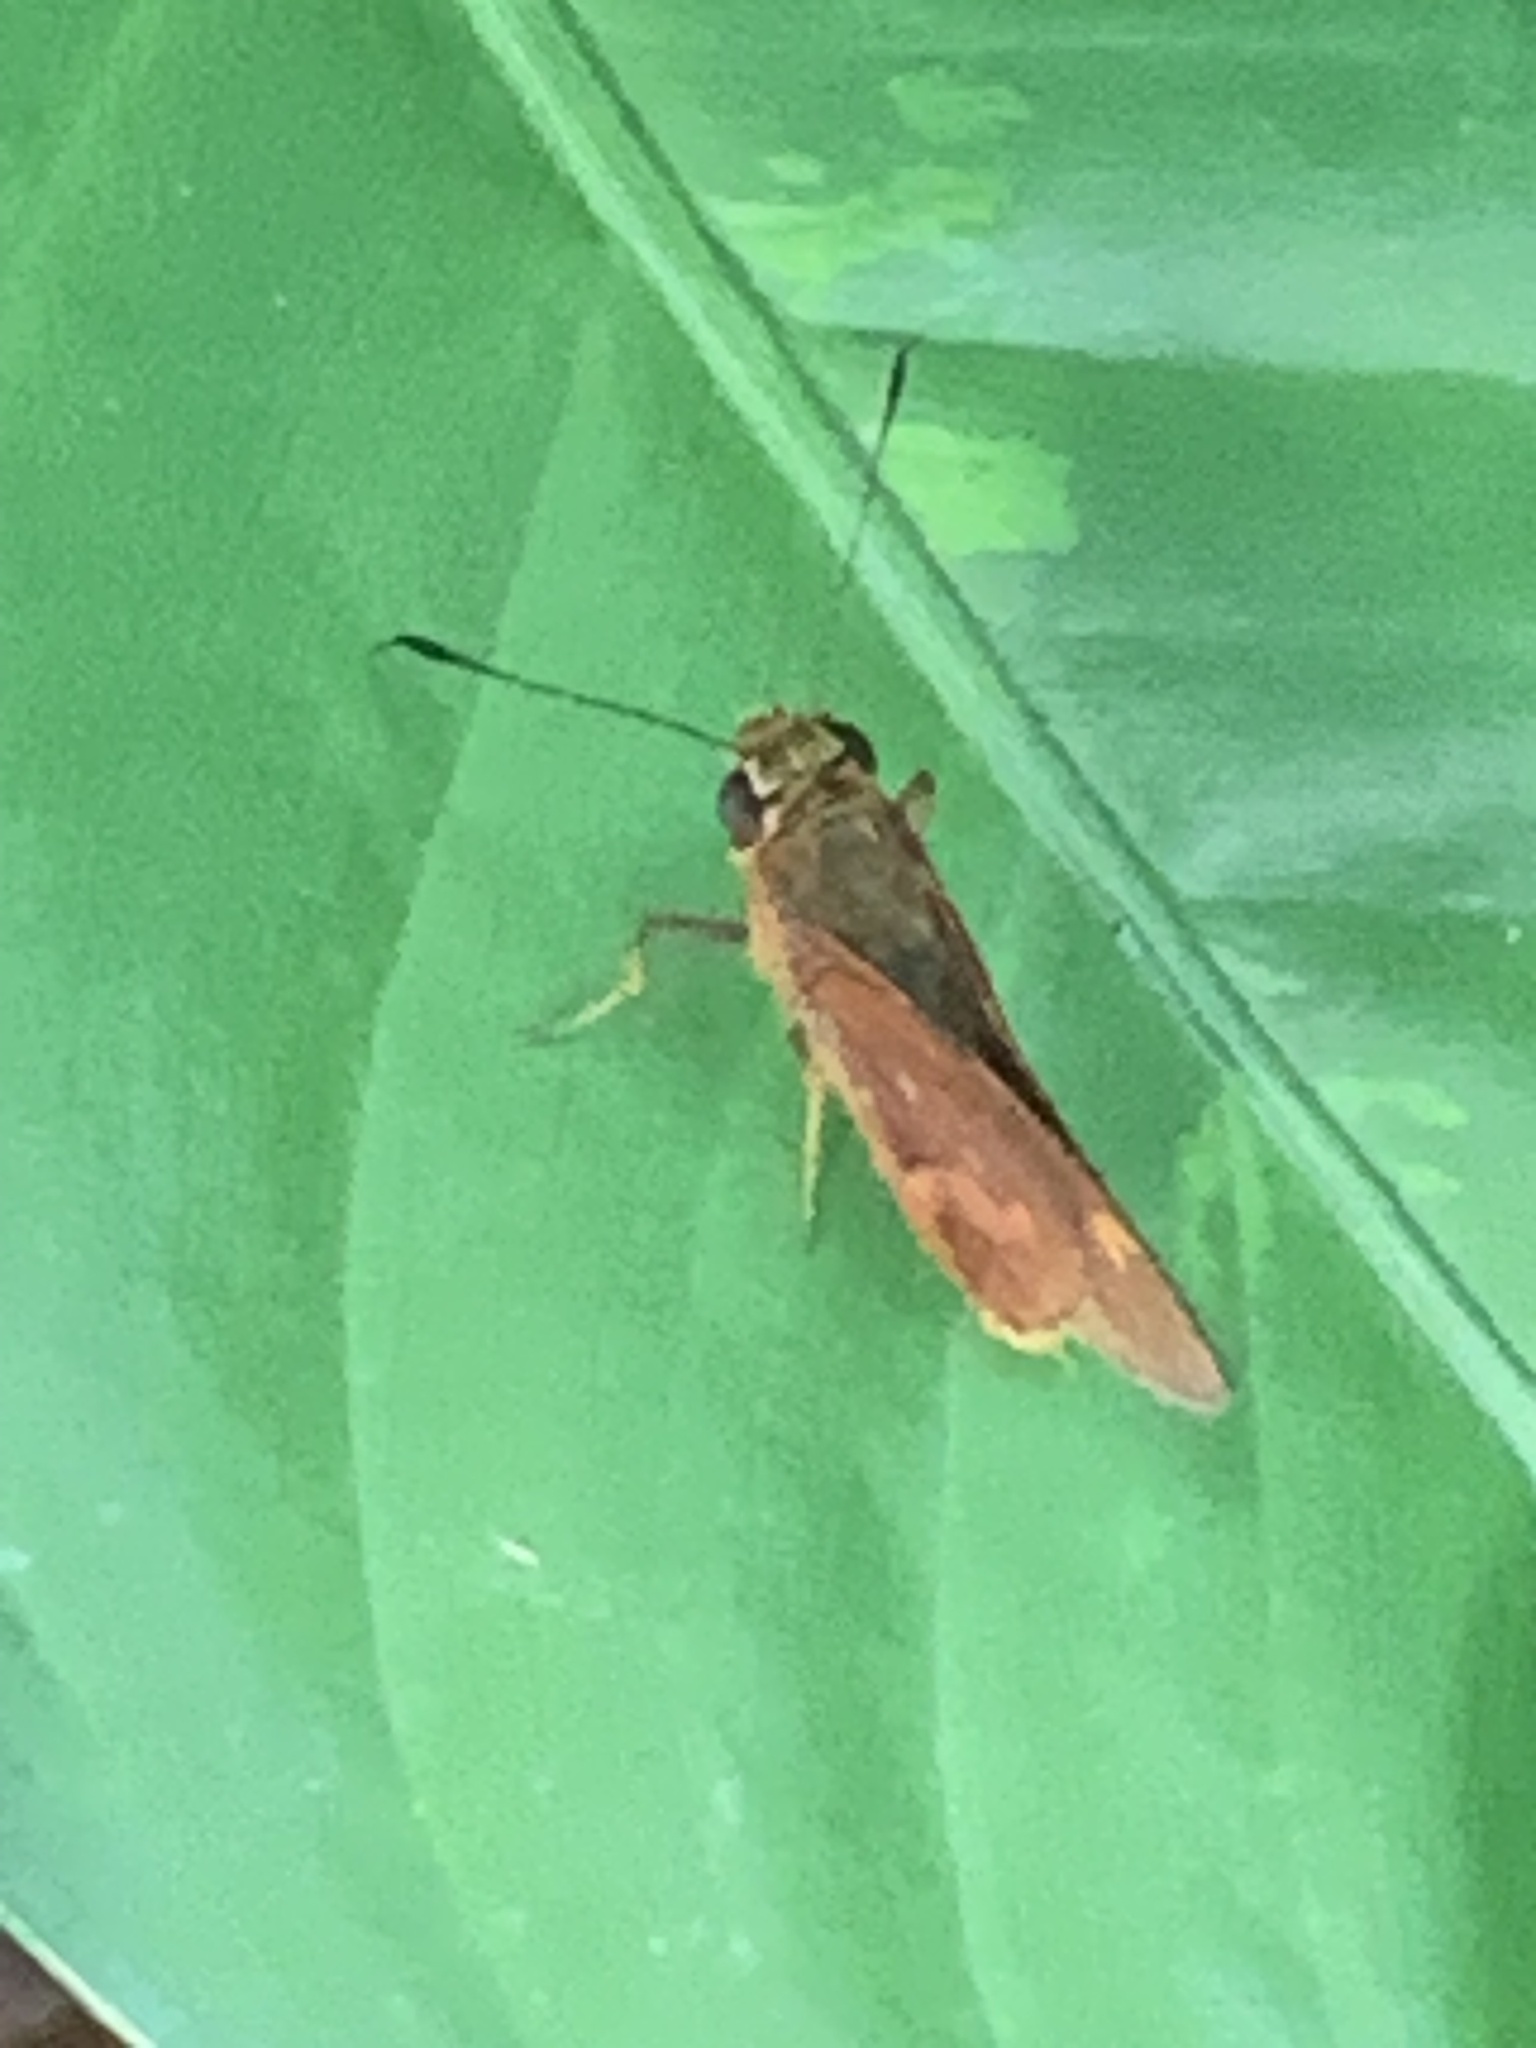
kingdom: Animalia
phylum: Arthropoda
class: Insecta
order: Lepidoptera
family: Hesperiidae
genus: Sabera
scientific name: Sabera dobboe
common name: Yellow-streaked swift
